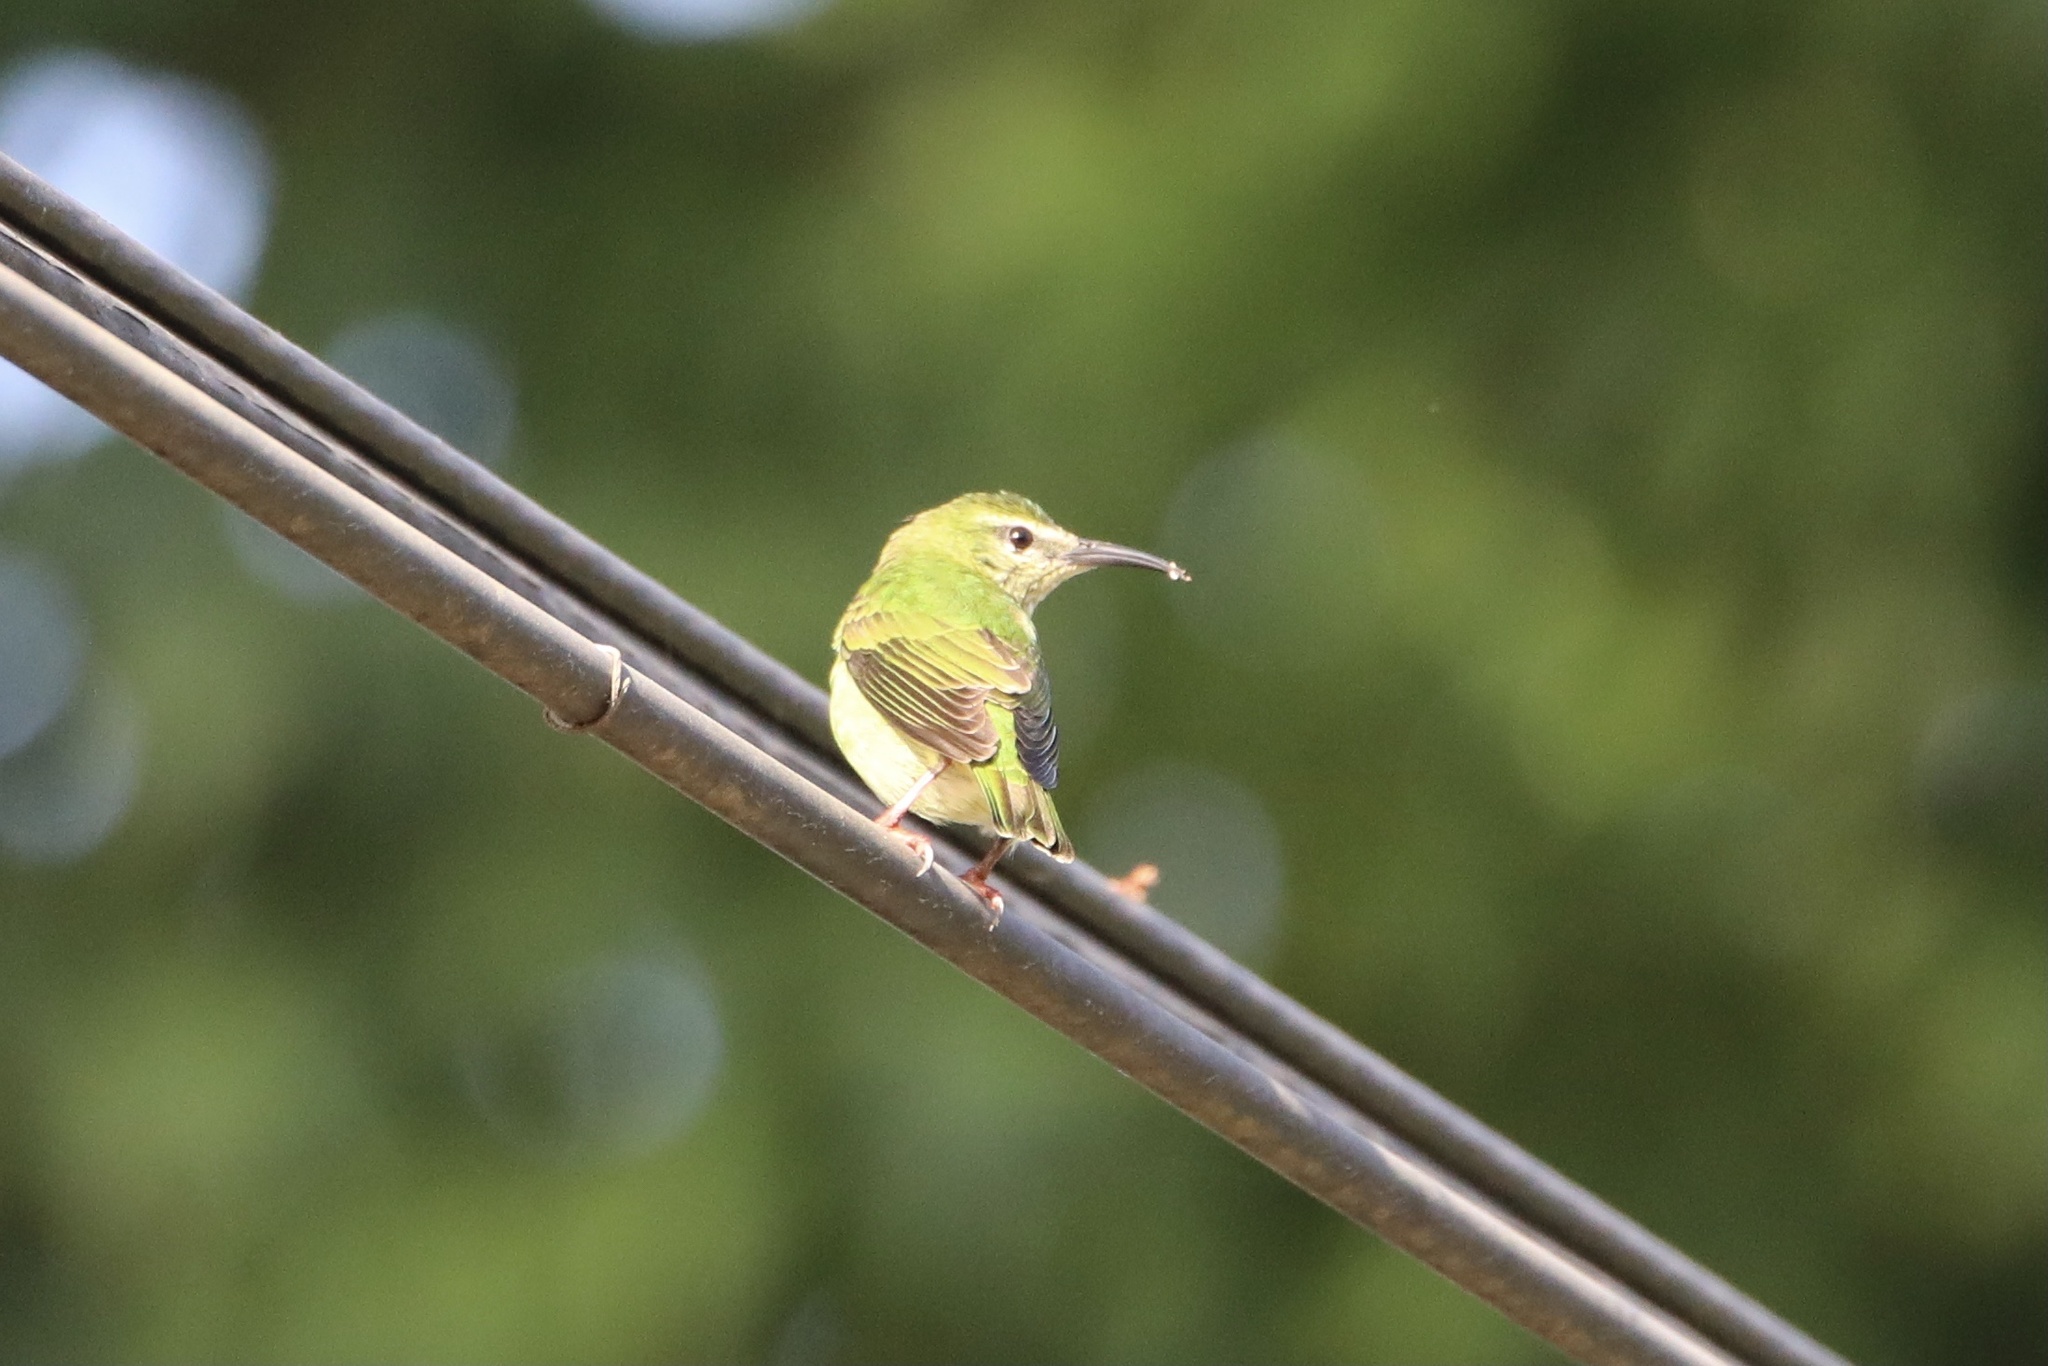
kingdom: Animalia
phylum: Chordata
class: Aves
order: Passeriformes
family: Thraupidae
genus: Cyanerpes
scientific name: Cyanerpes cyaneus
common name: Red-legged honeycreeper
